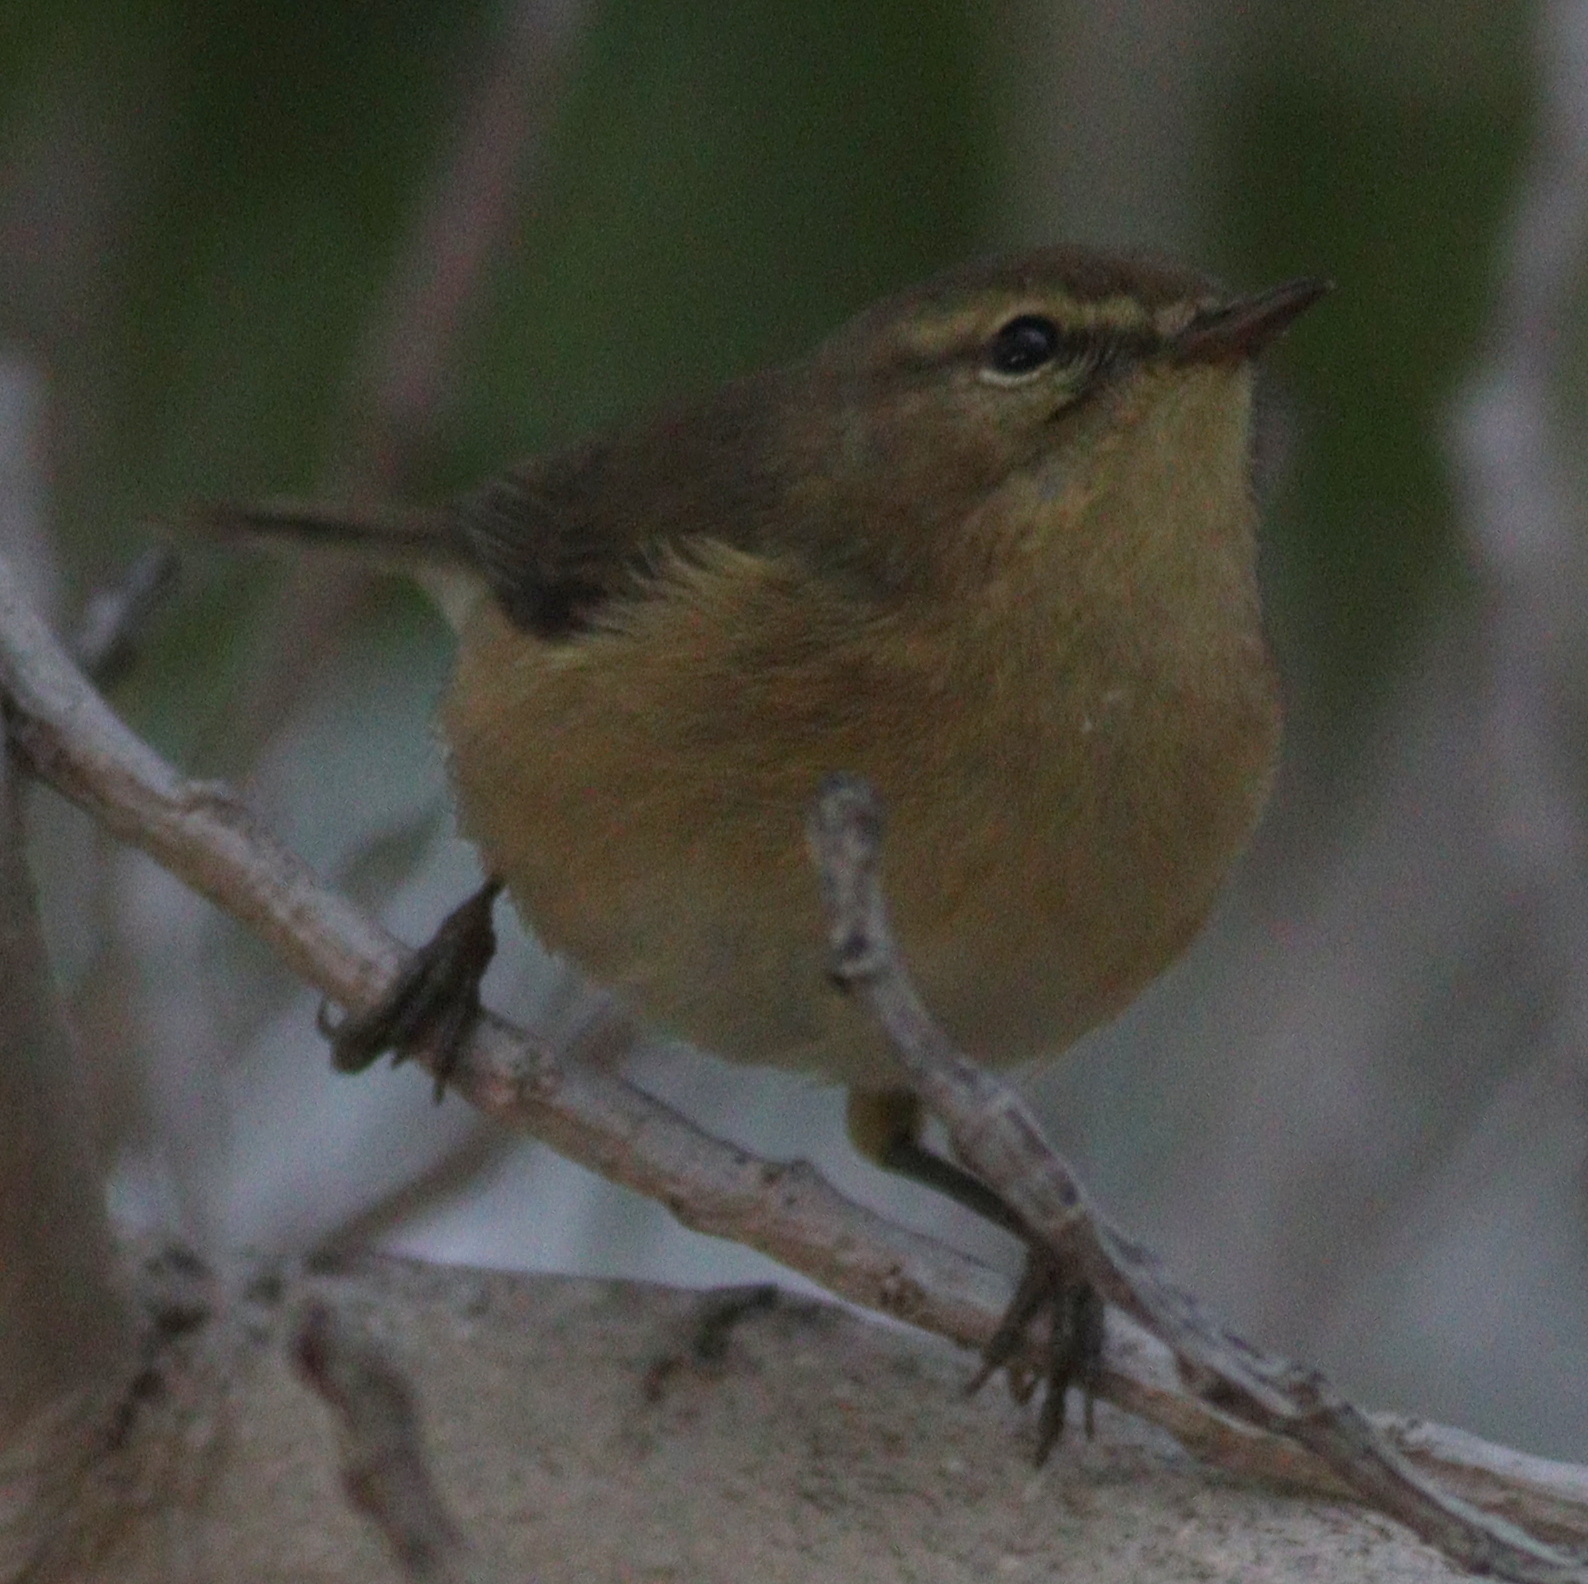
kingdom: Animalia
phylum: Chordata
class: Aves
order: Passeriformes
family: Phylloscopidae
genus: Phylloscopus
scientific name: Phylloscopus canariensis
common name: Canary islands chiffchaff
